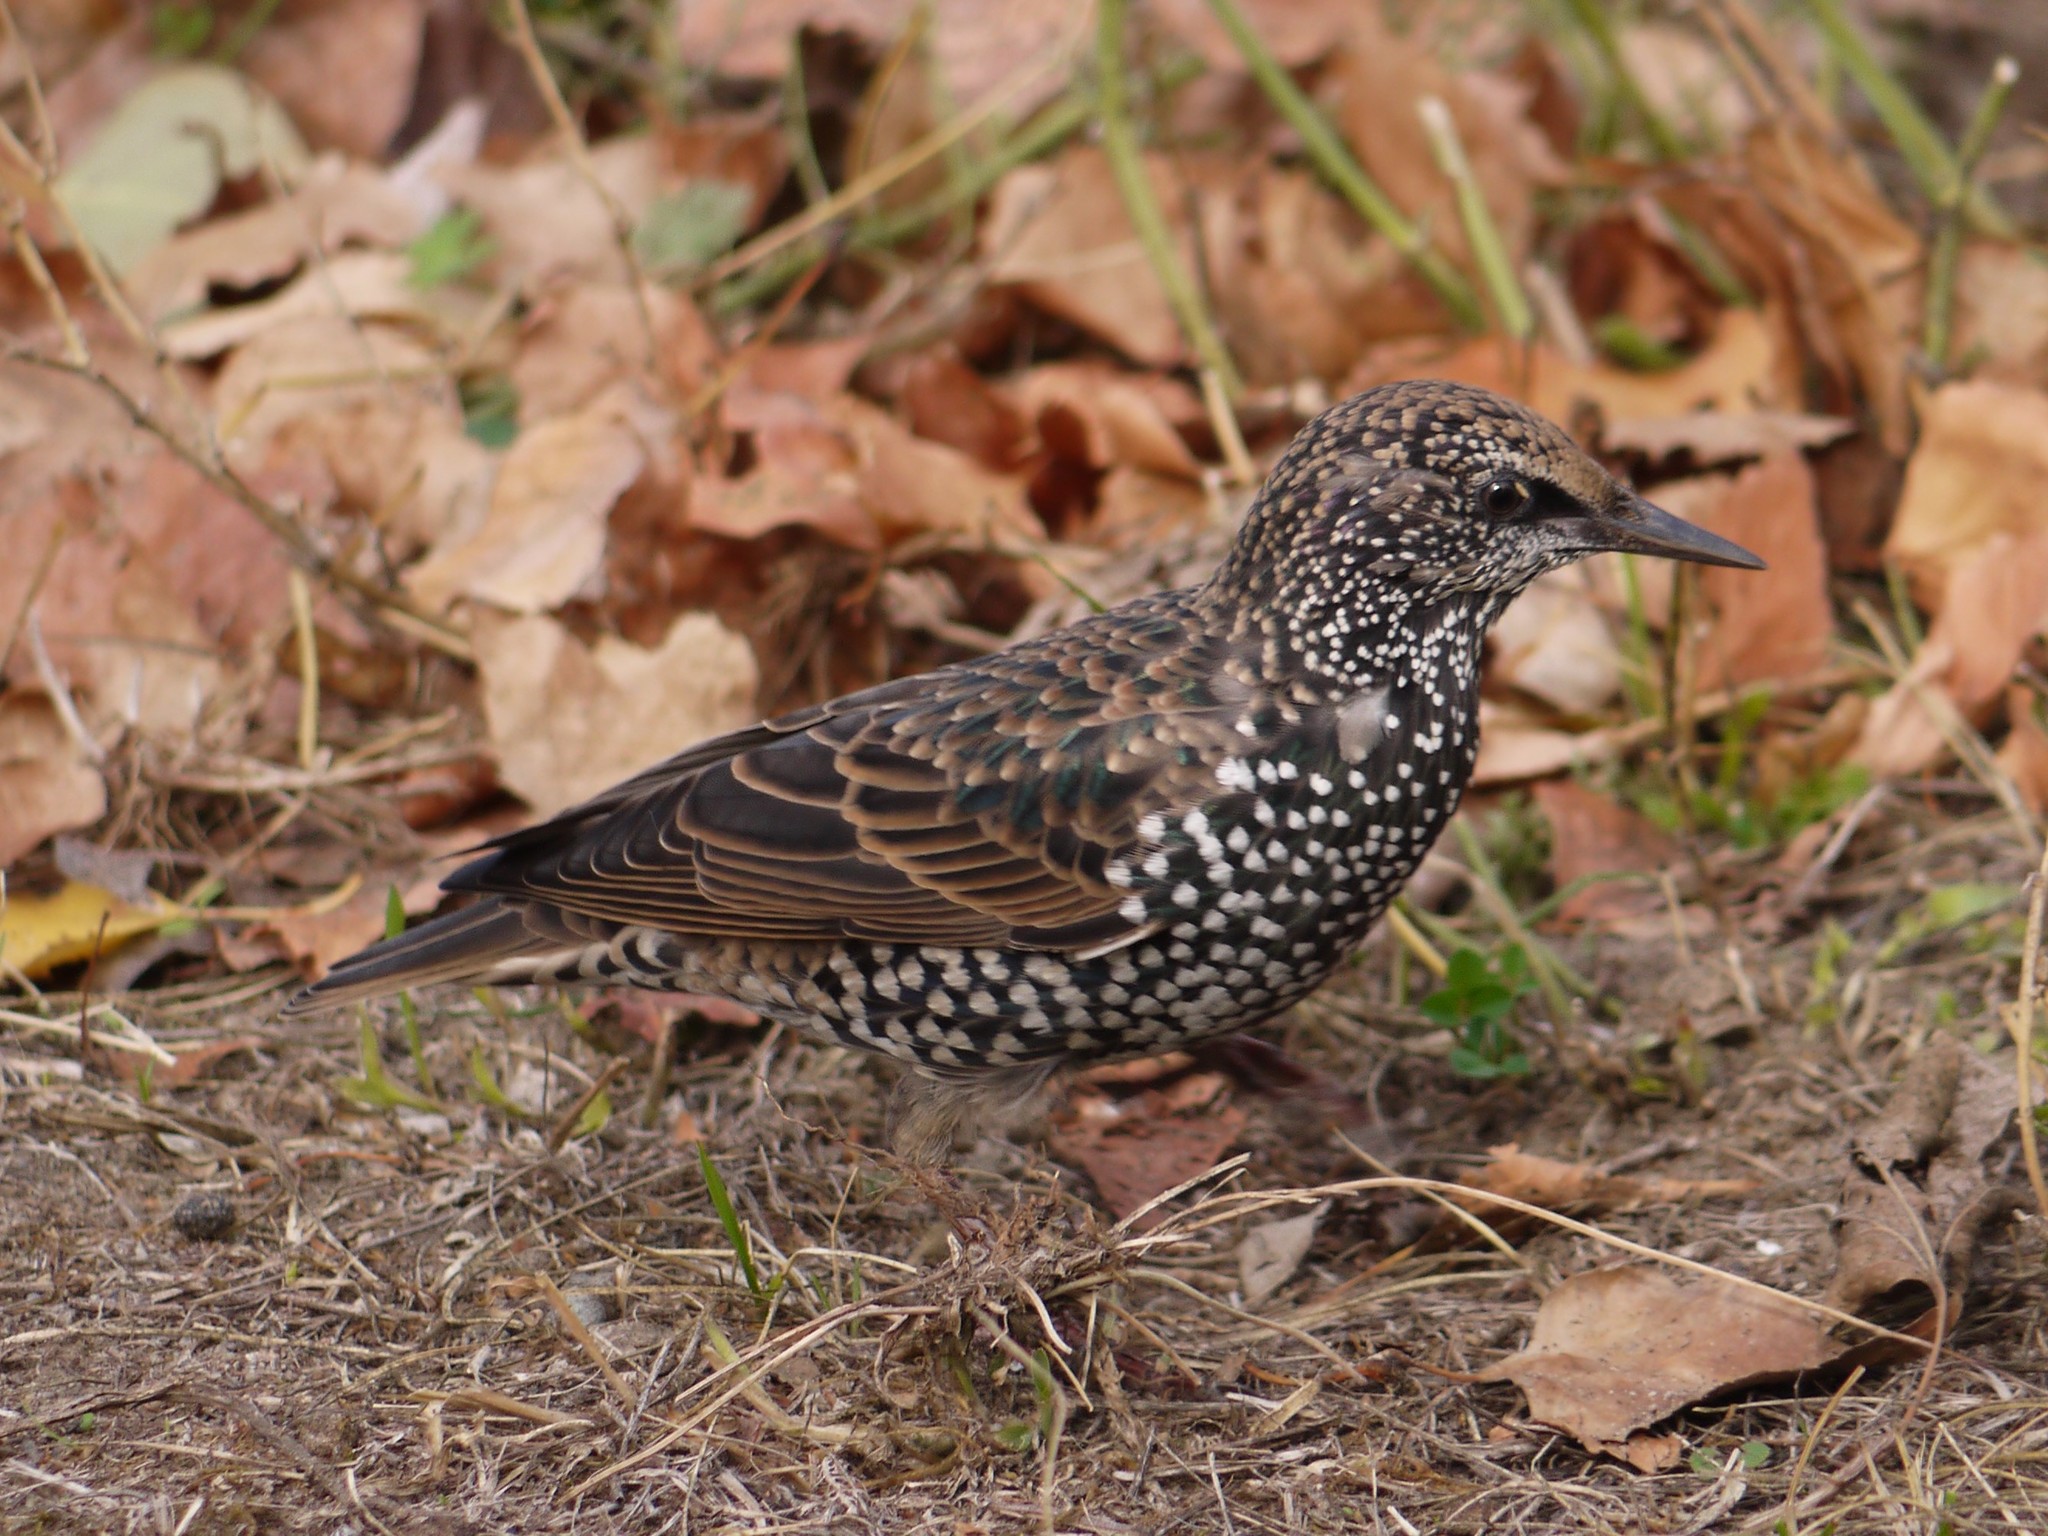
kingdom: Animalia
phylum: Chordata
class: Aves
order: Passeriformes
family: Sturnidae
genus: Sturnus
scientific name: Sturnus vulgaris
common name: Common starling
